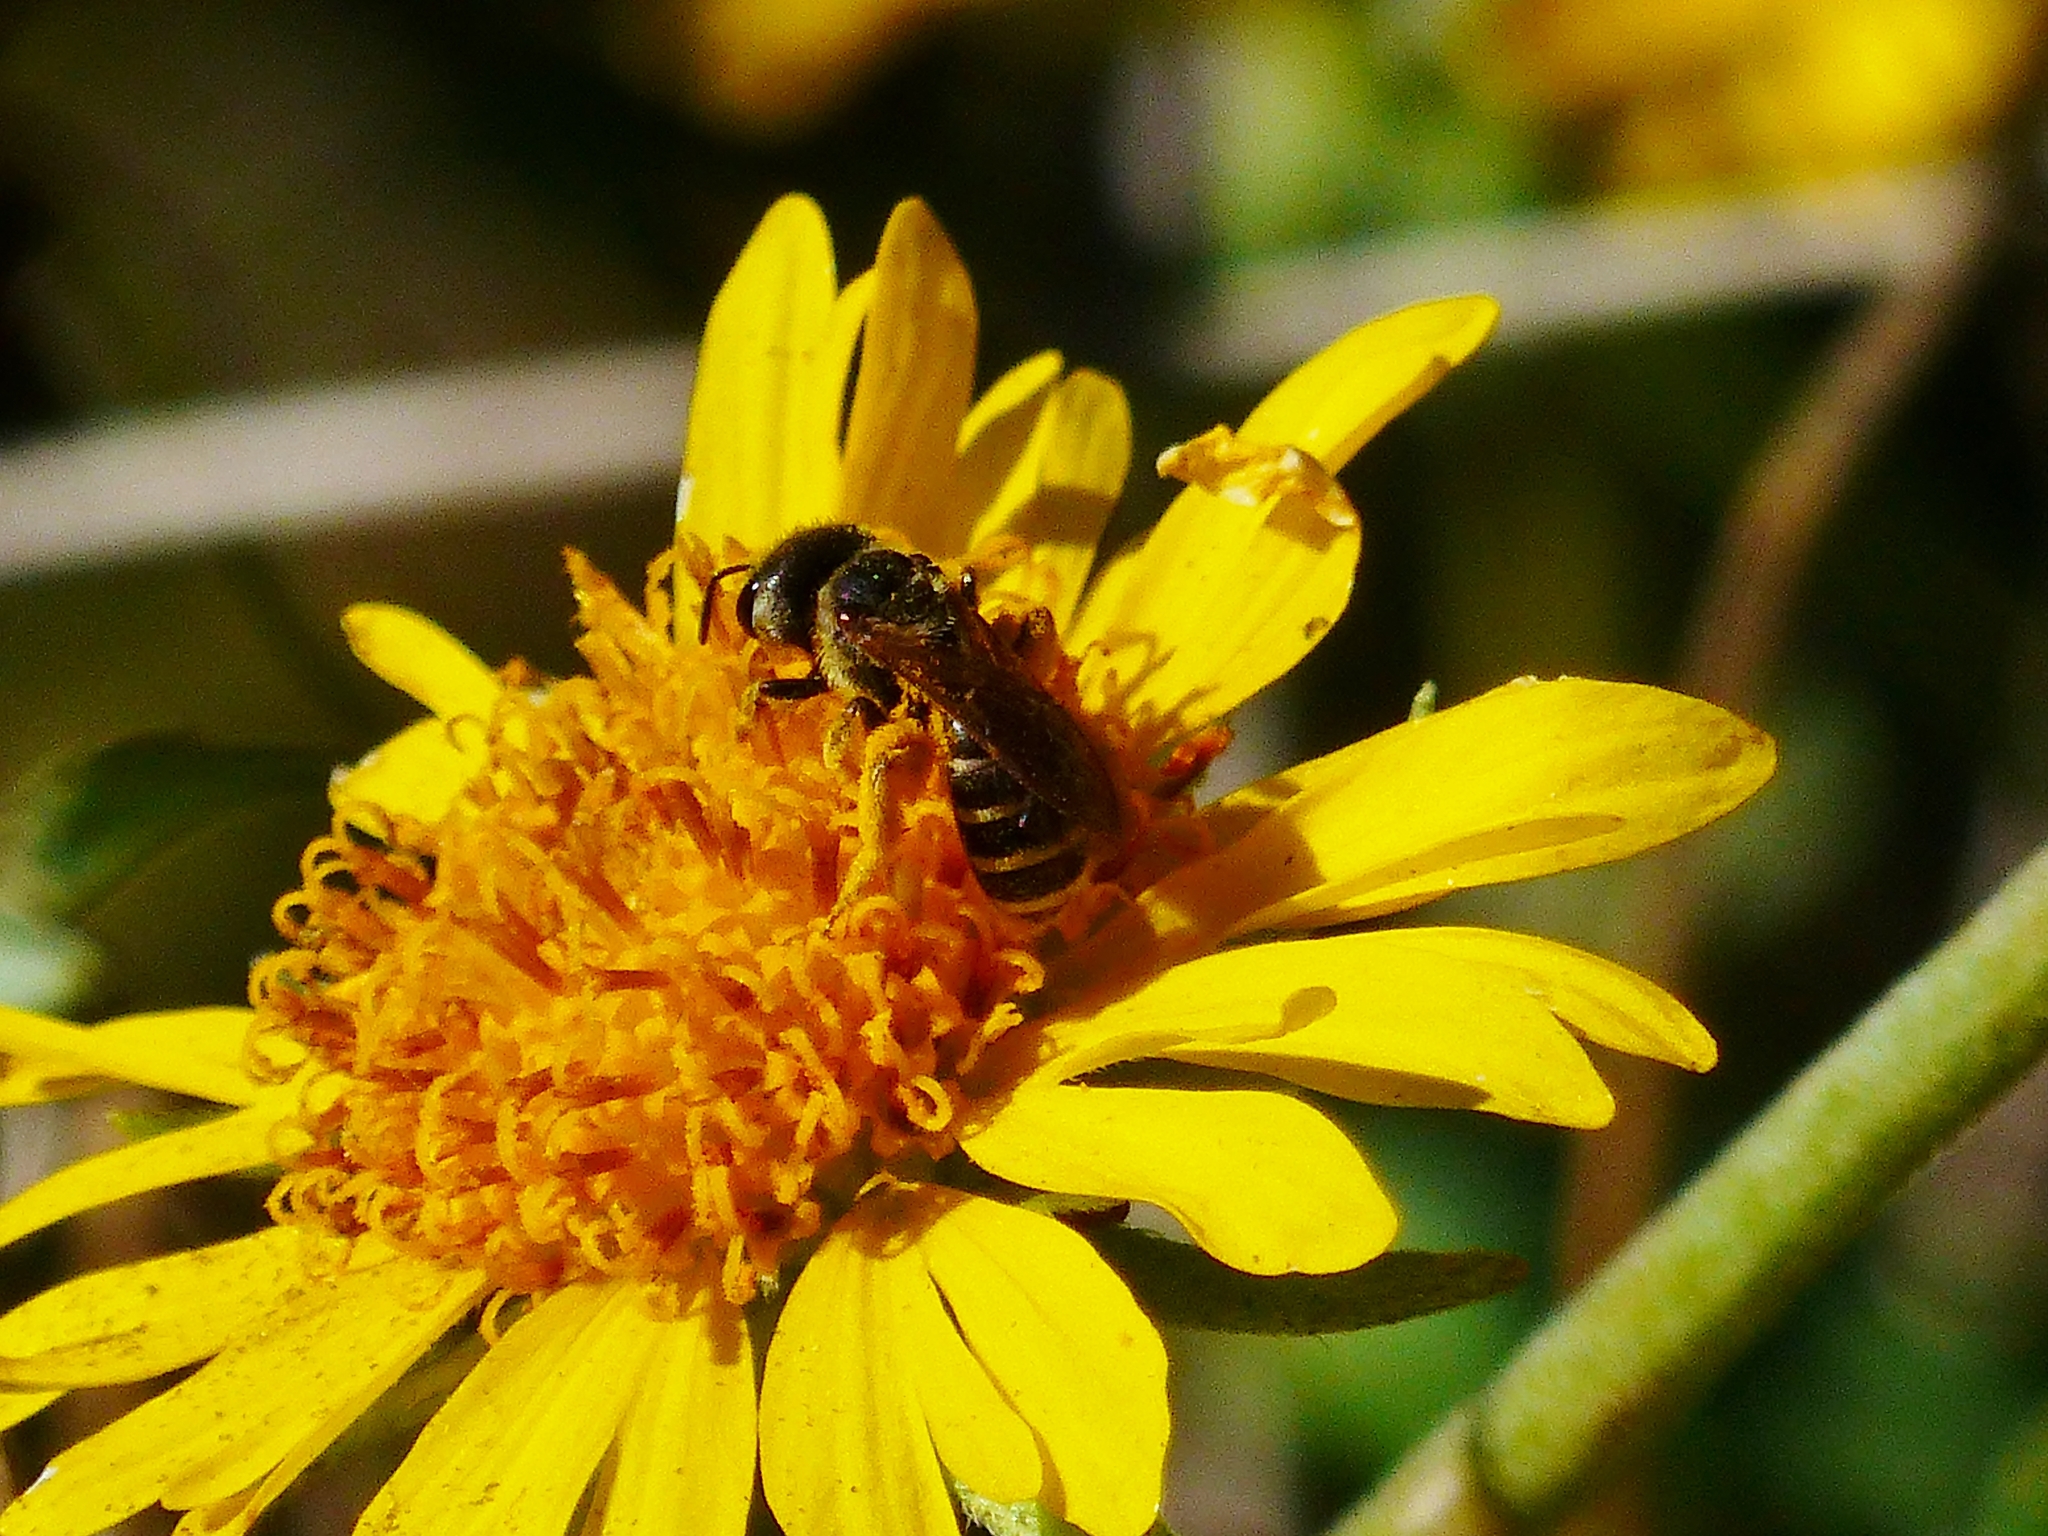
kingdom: Animalia
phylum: Arthropoda
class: Insecta
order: Hymenoptera
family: Halictidae
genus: Halictus
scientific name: Halictus ligatus
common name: Ligated furrow bee
